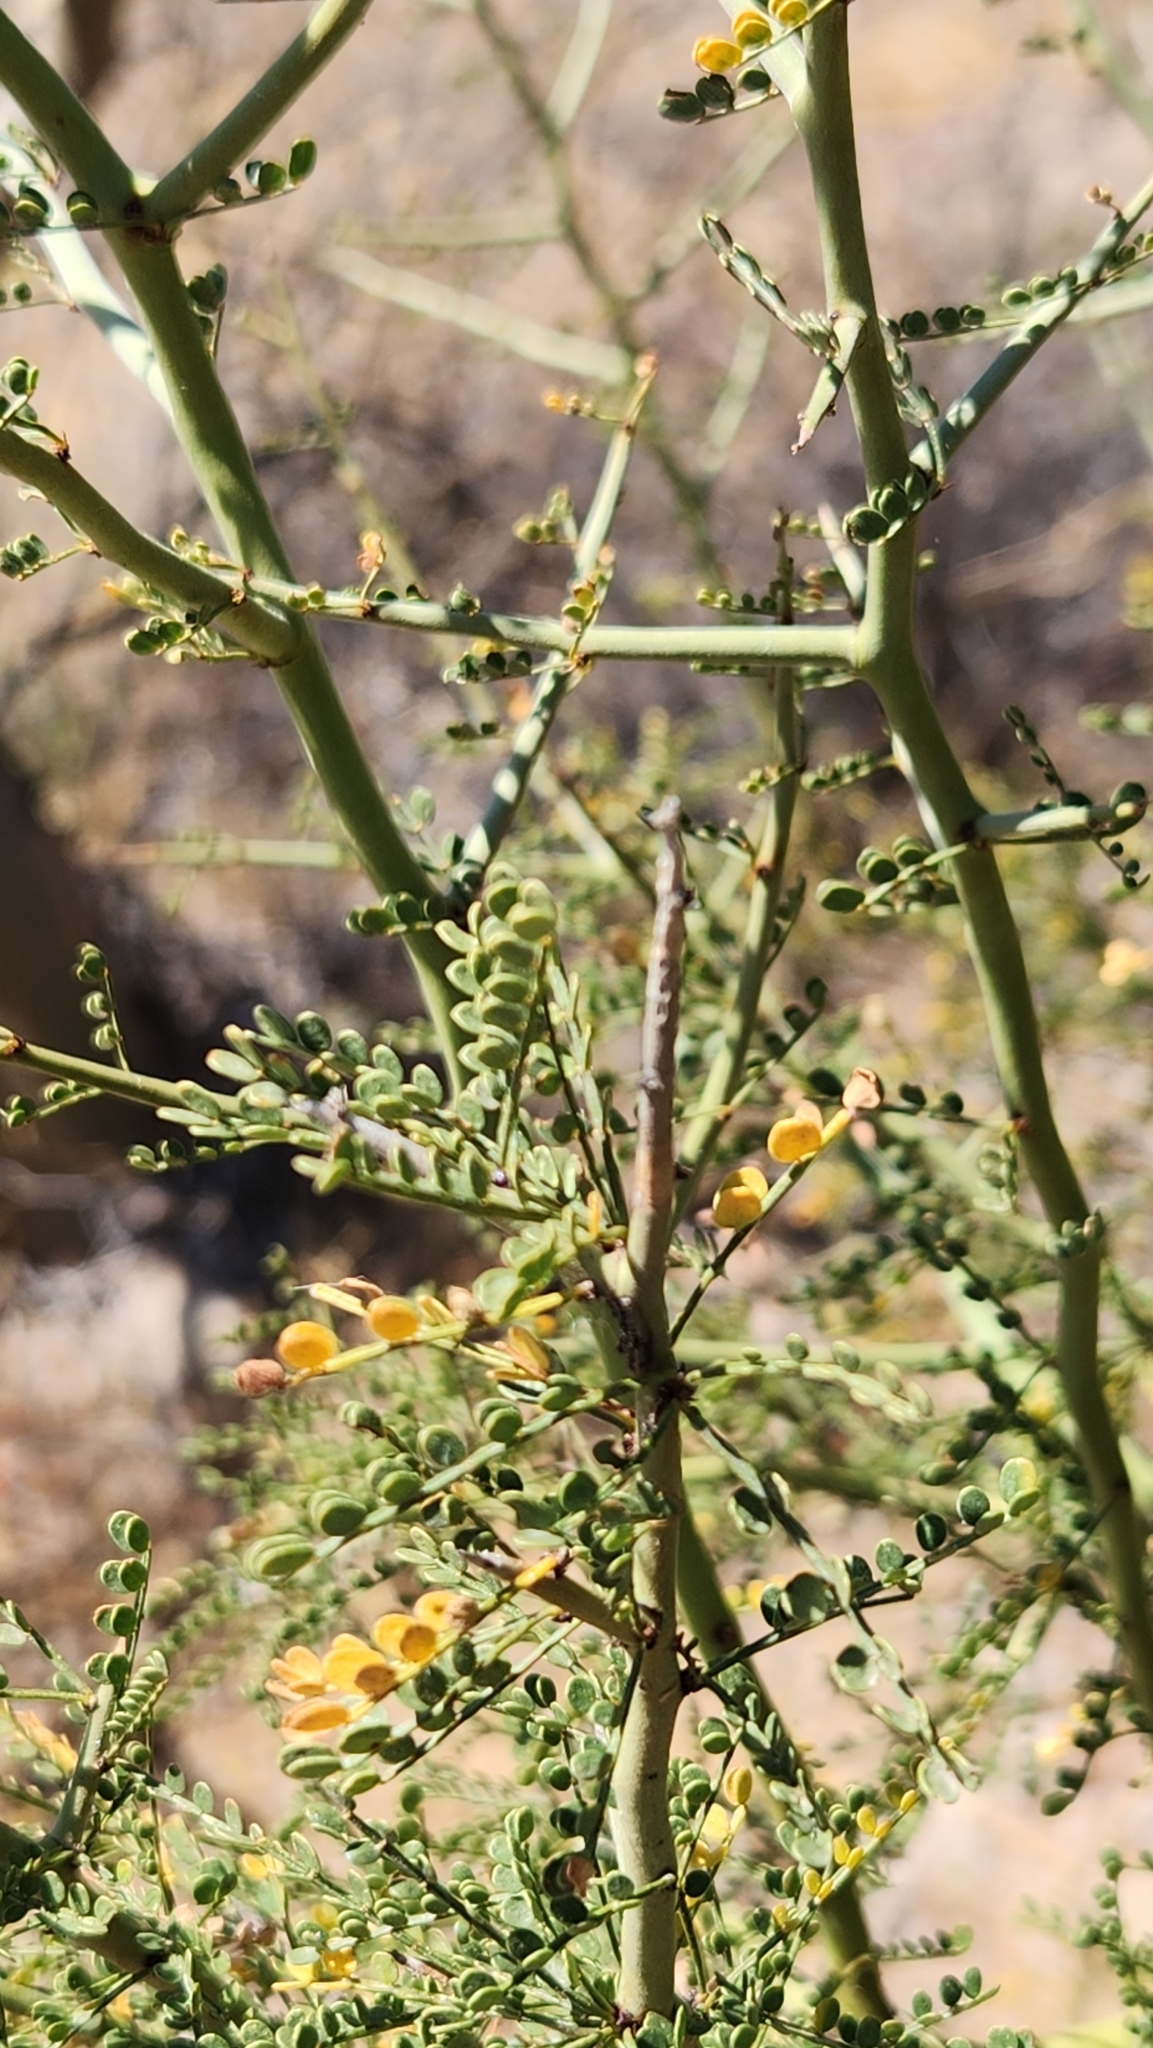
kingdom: Plantae
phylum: Tracheophyta
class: Magnoliopsida
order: Fabales
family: Fabaceae
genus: Parkinsonia
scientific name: Parkinsonia microphylla
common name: Yellow paloverde
